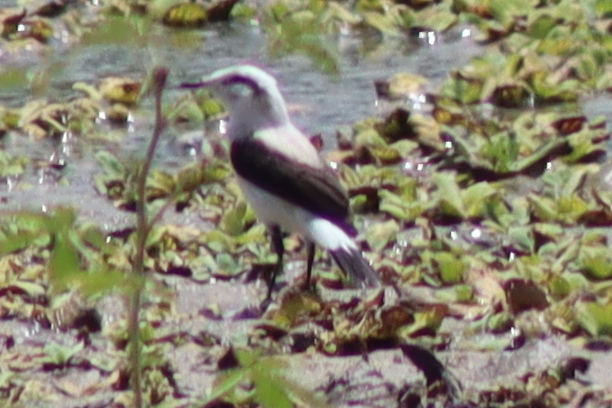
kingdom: Animalia
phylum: Chordata
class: Aves
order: Passeriformes
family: Tyrannidae
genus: Fluvicola
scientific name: Fluvicola nengeta
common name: Masked water tyrant
